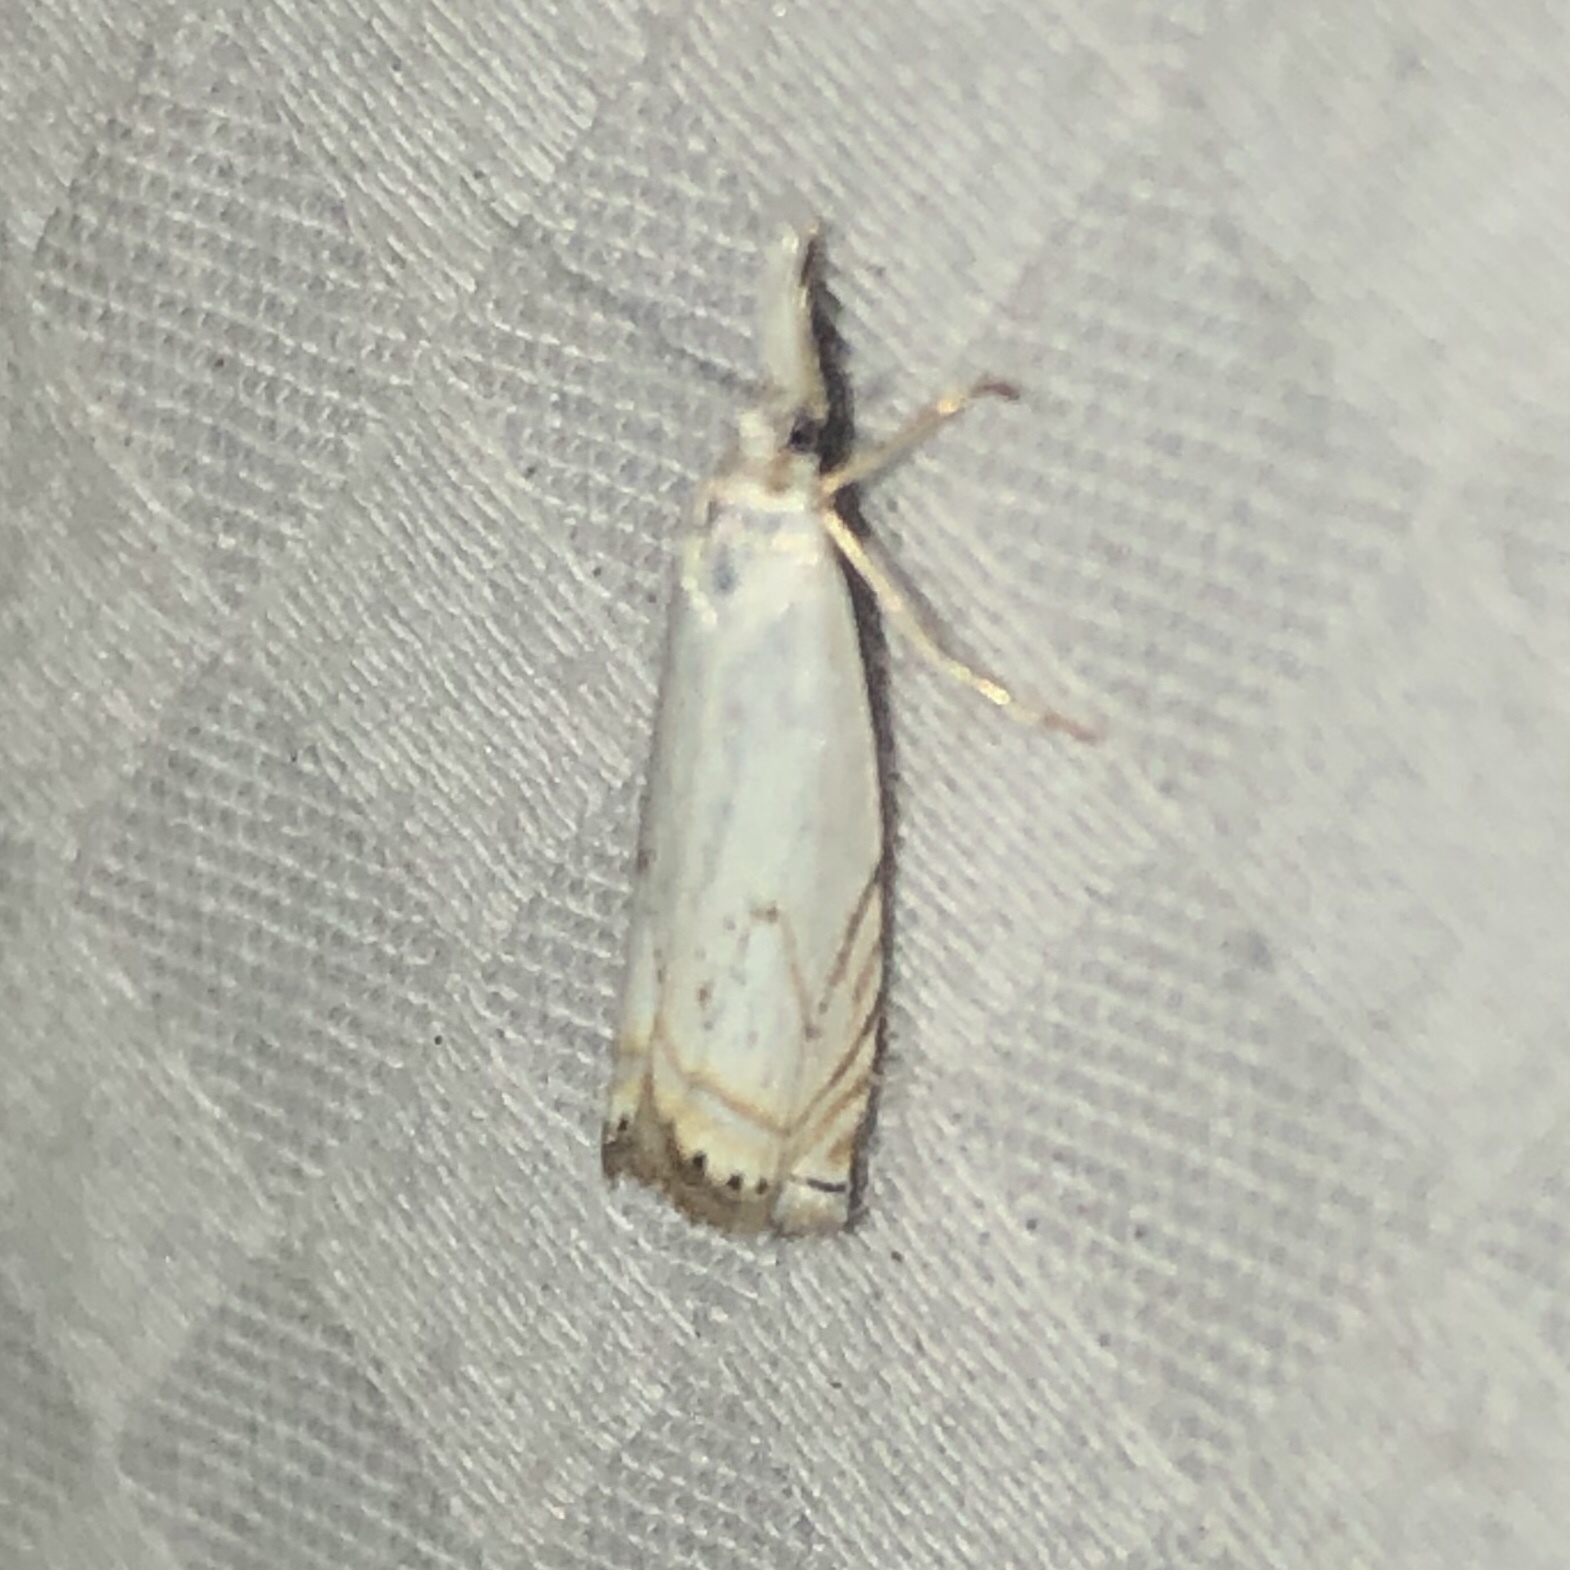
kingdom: Animalia
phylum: Arthropoda
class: Insecta
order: Lepidoptera
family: Crambidae
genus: Crambus
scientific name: Crambus albellus
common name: Small white grass-veneer
